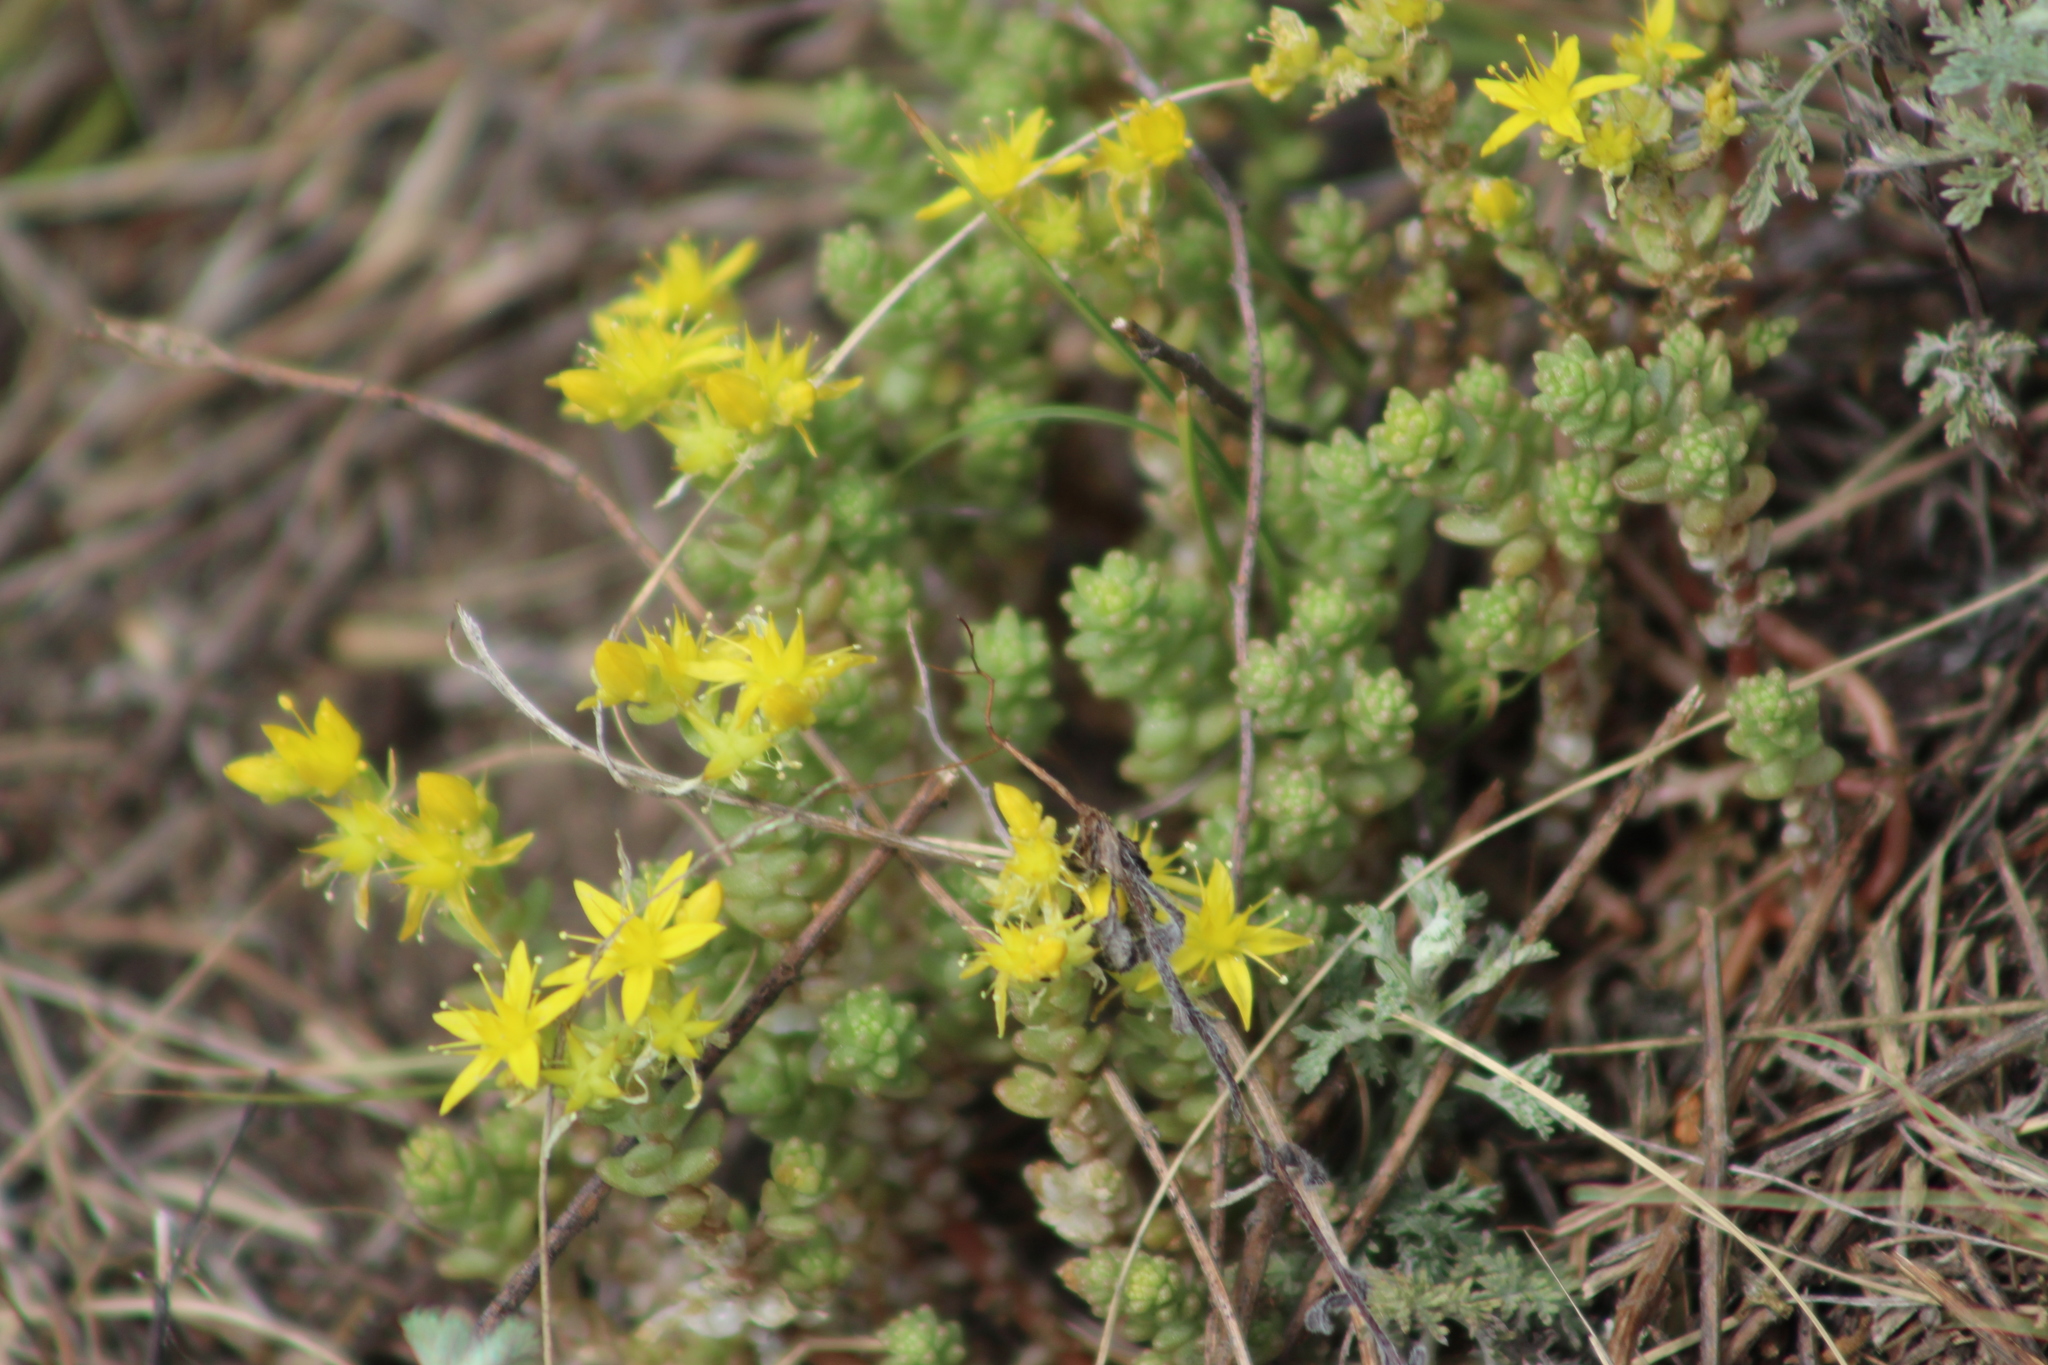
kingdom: Plantae
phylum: Tracheophyta
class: Magnoliopsida
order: Saxifragales
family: Crassulaceae
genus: Sedum
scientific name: Sedum acre
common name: Biting stonecrop
